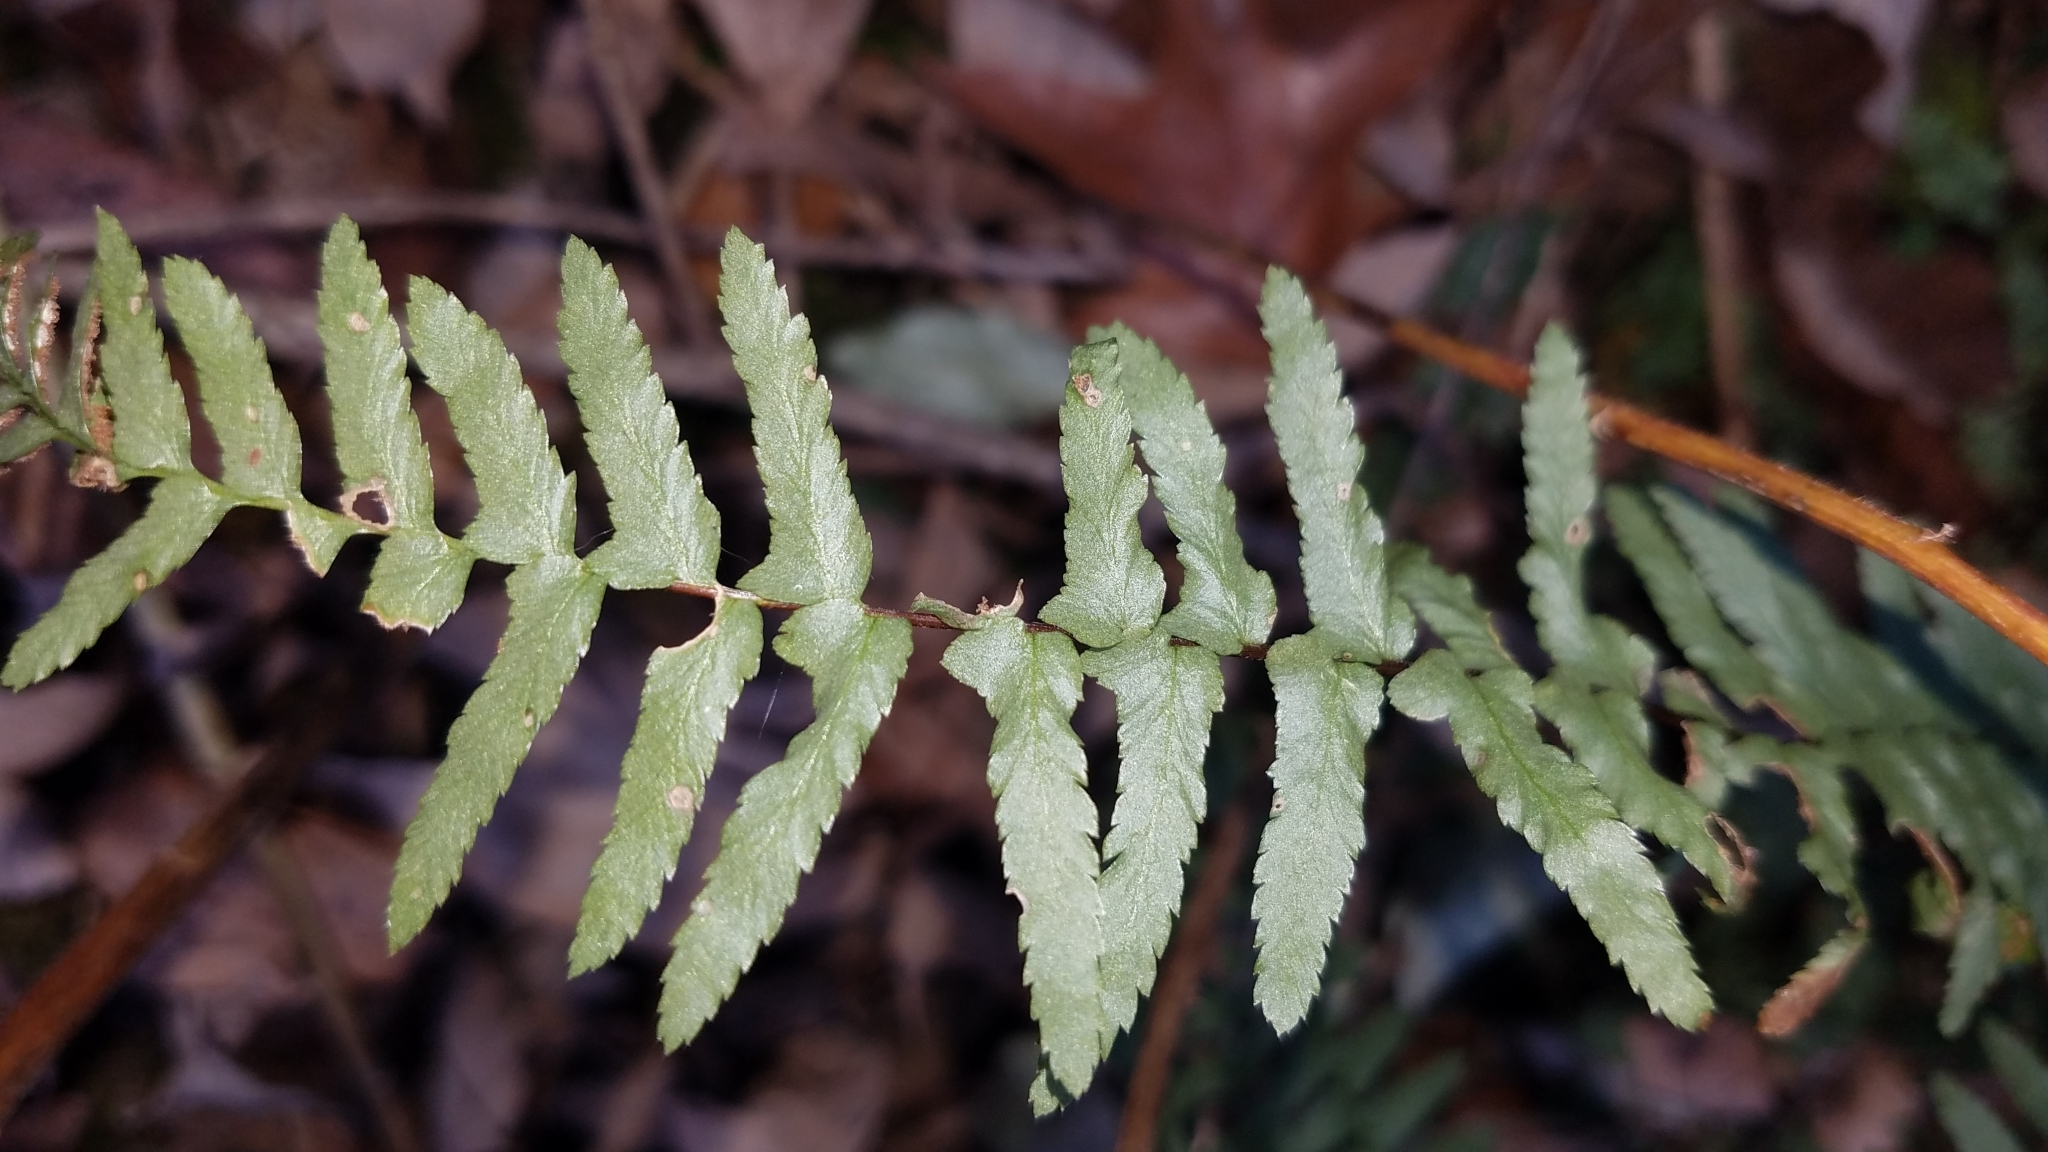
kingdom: Plantae
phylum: Tracheophyta
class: Polypodiopsida
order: Polypodiales
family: Aspleniaceae
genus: Asplenium
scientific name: Asplenium platyneuron
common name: Ebony spleenwort
